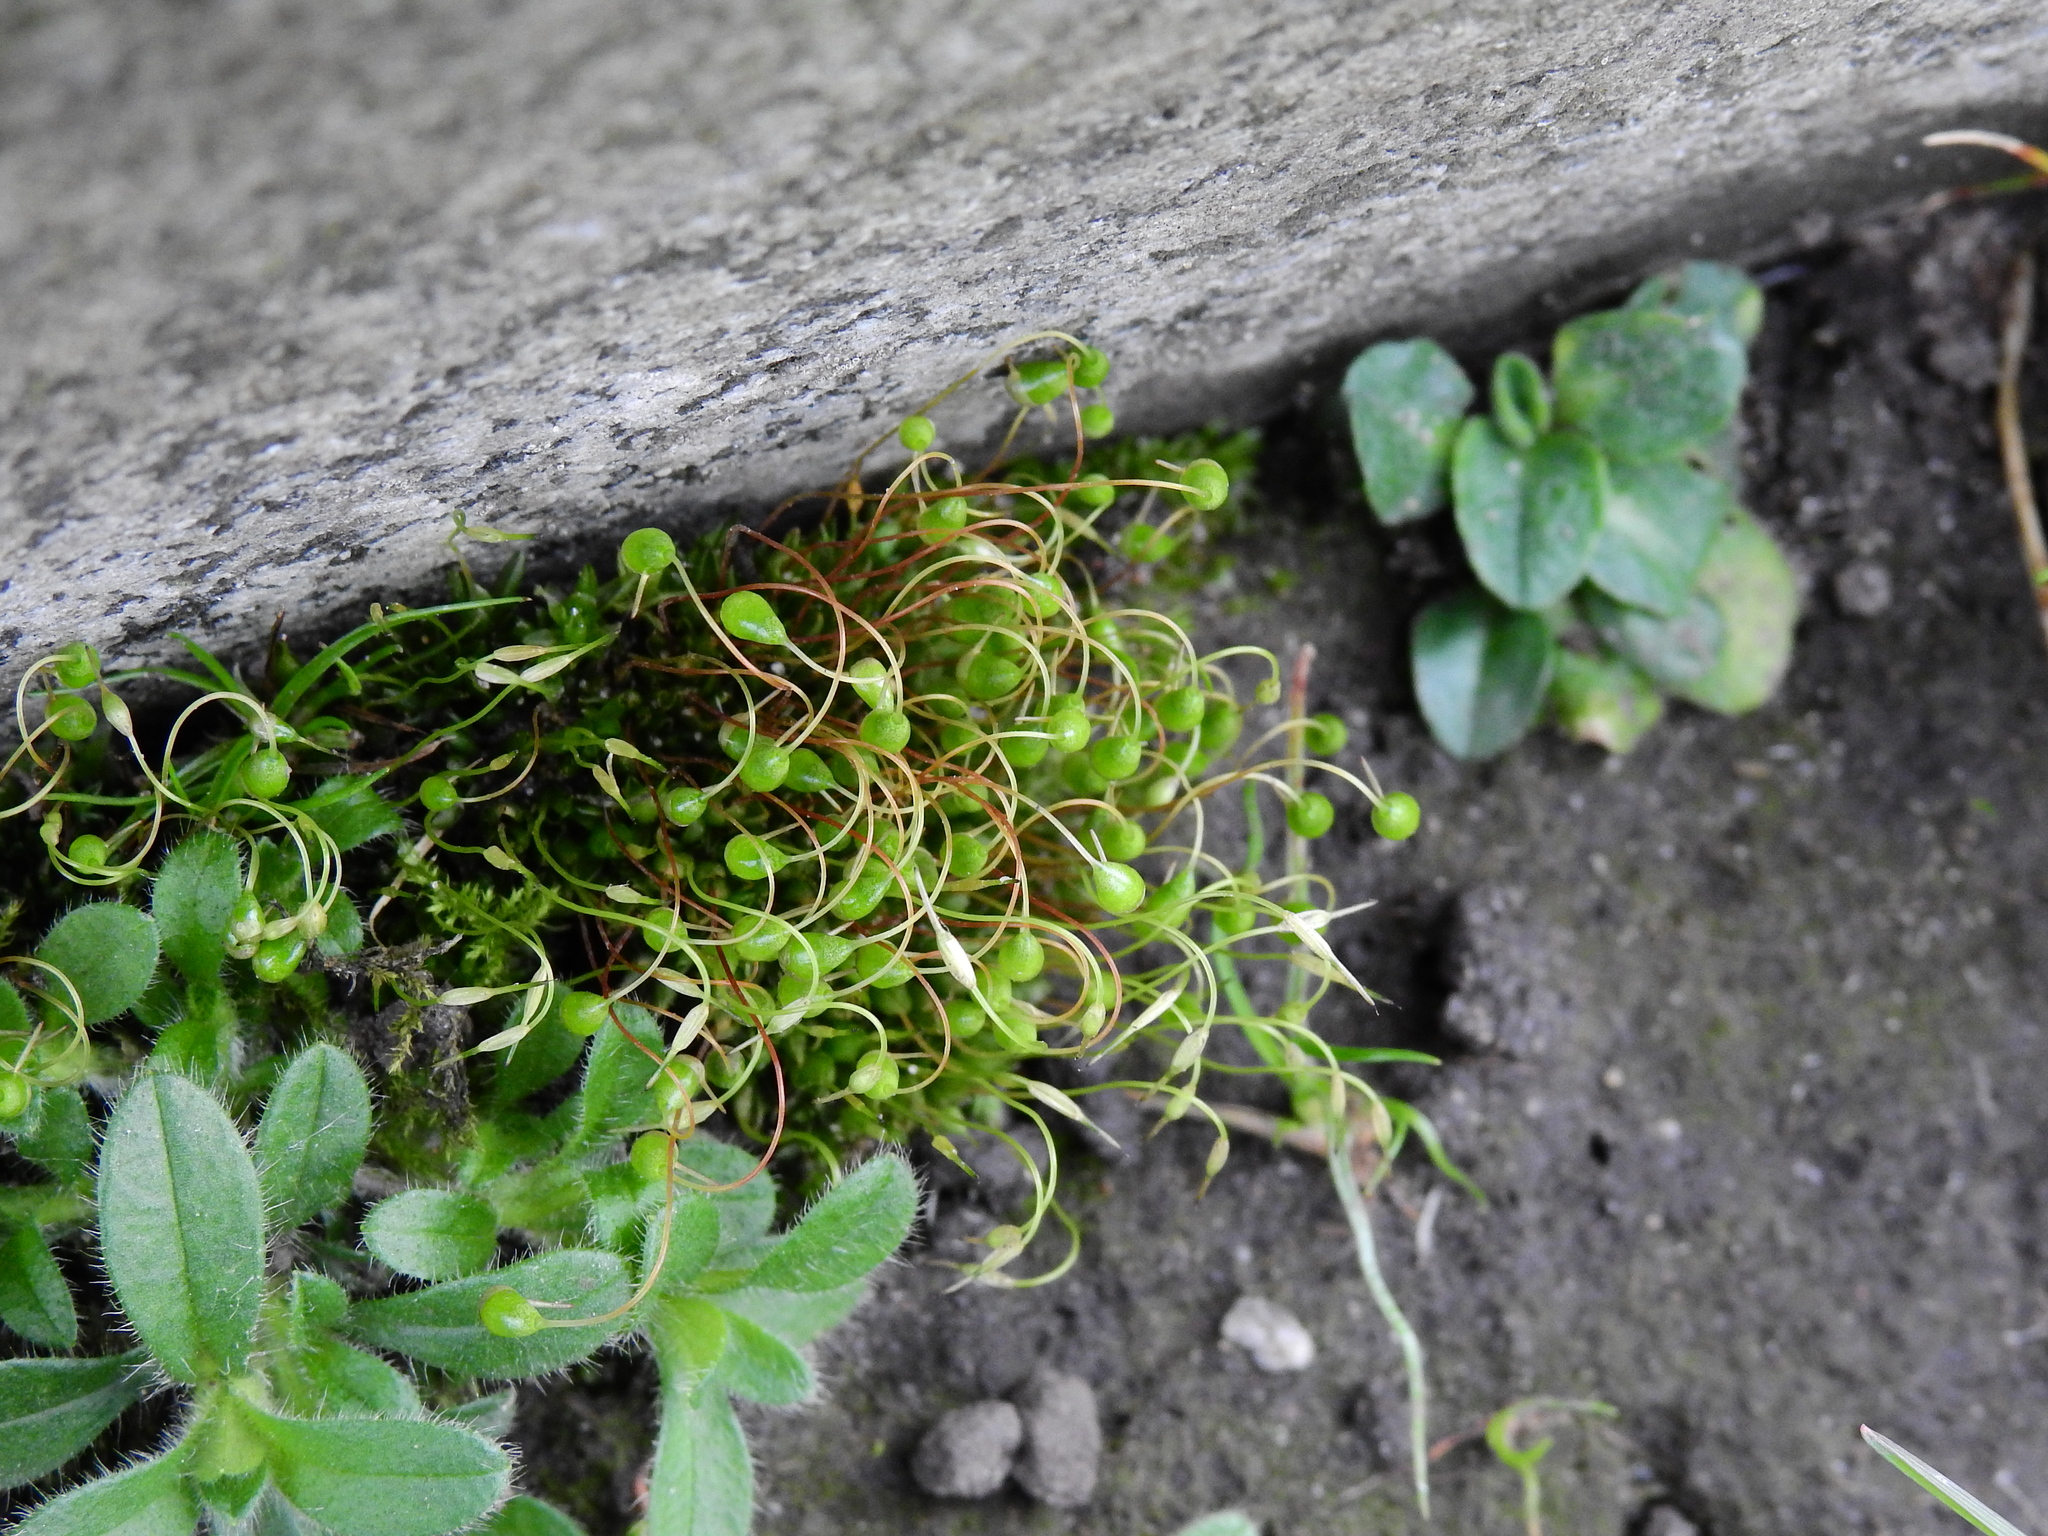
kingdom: Plantae
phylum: Bryophyta
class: Bryopsida
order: Funariales
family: Funariaceae
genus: Funaria
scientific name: Funaria hygrometrica
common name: Common cord moss
